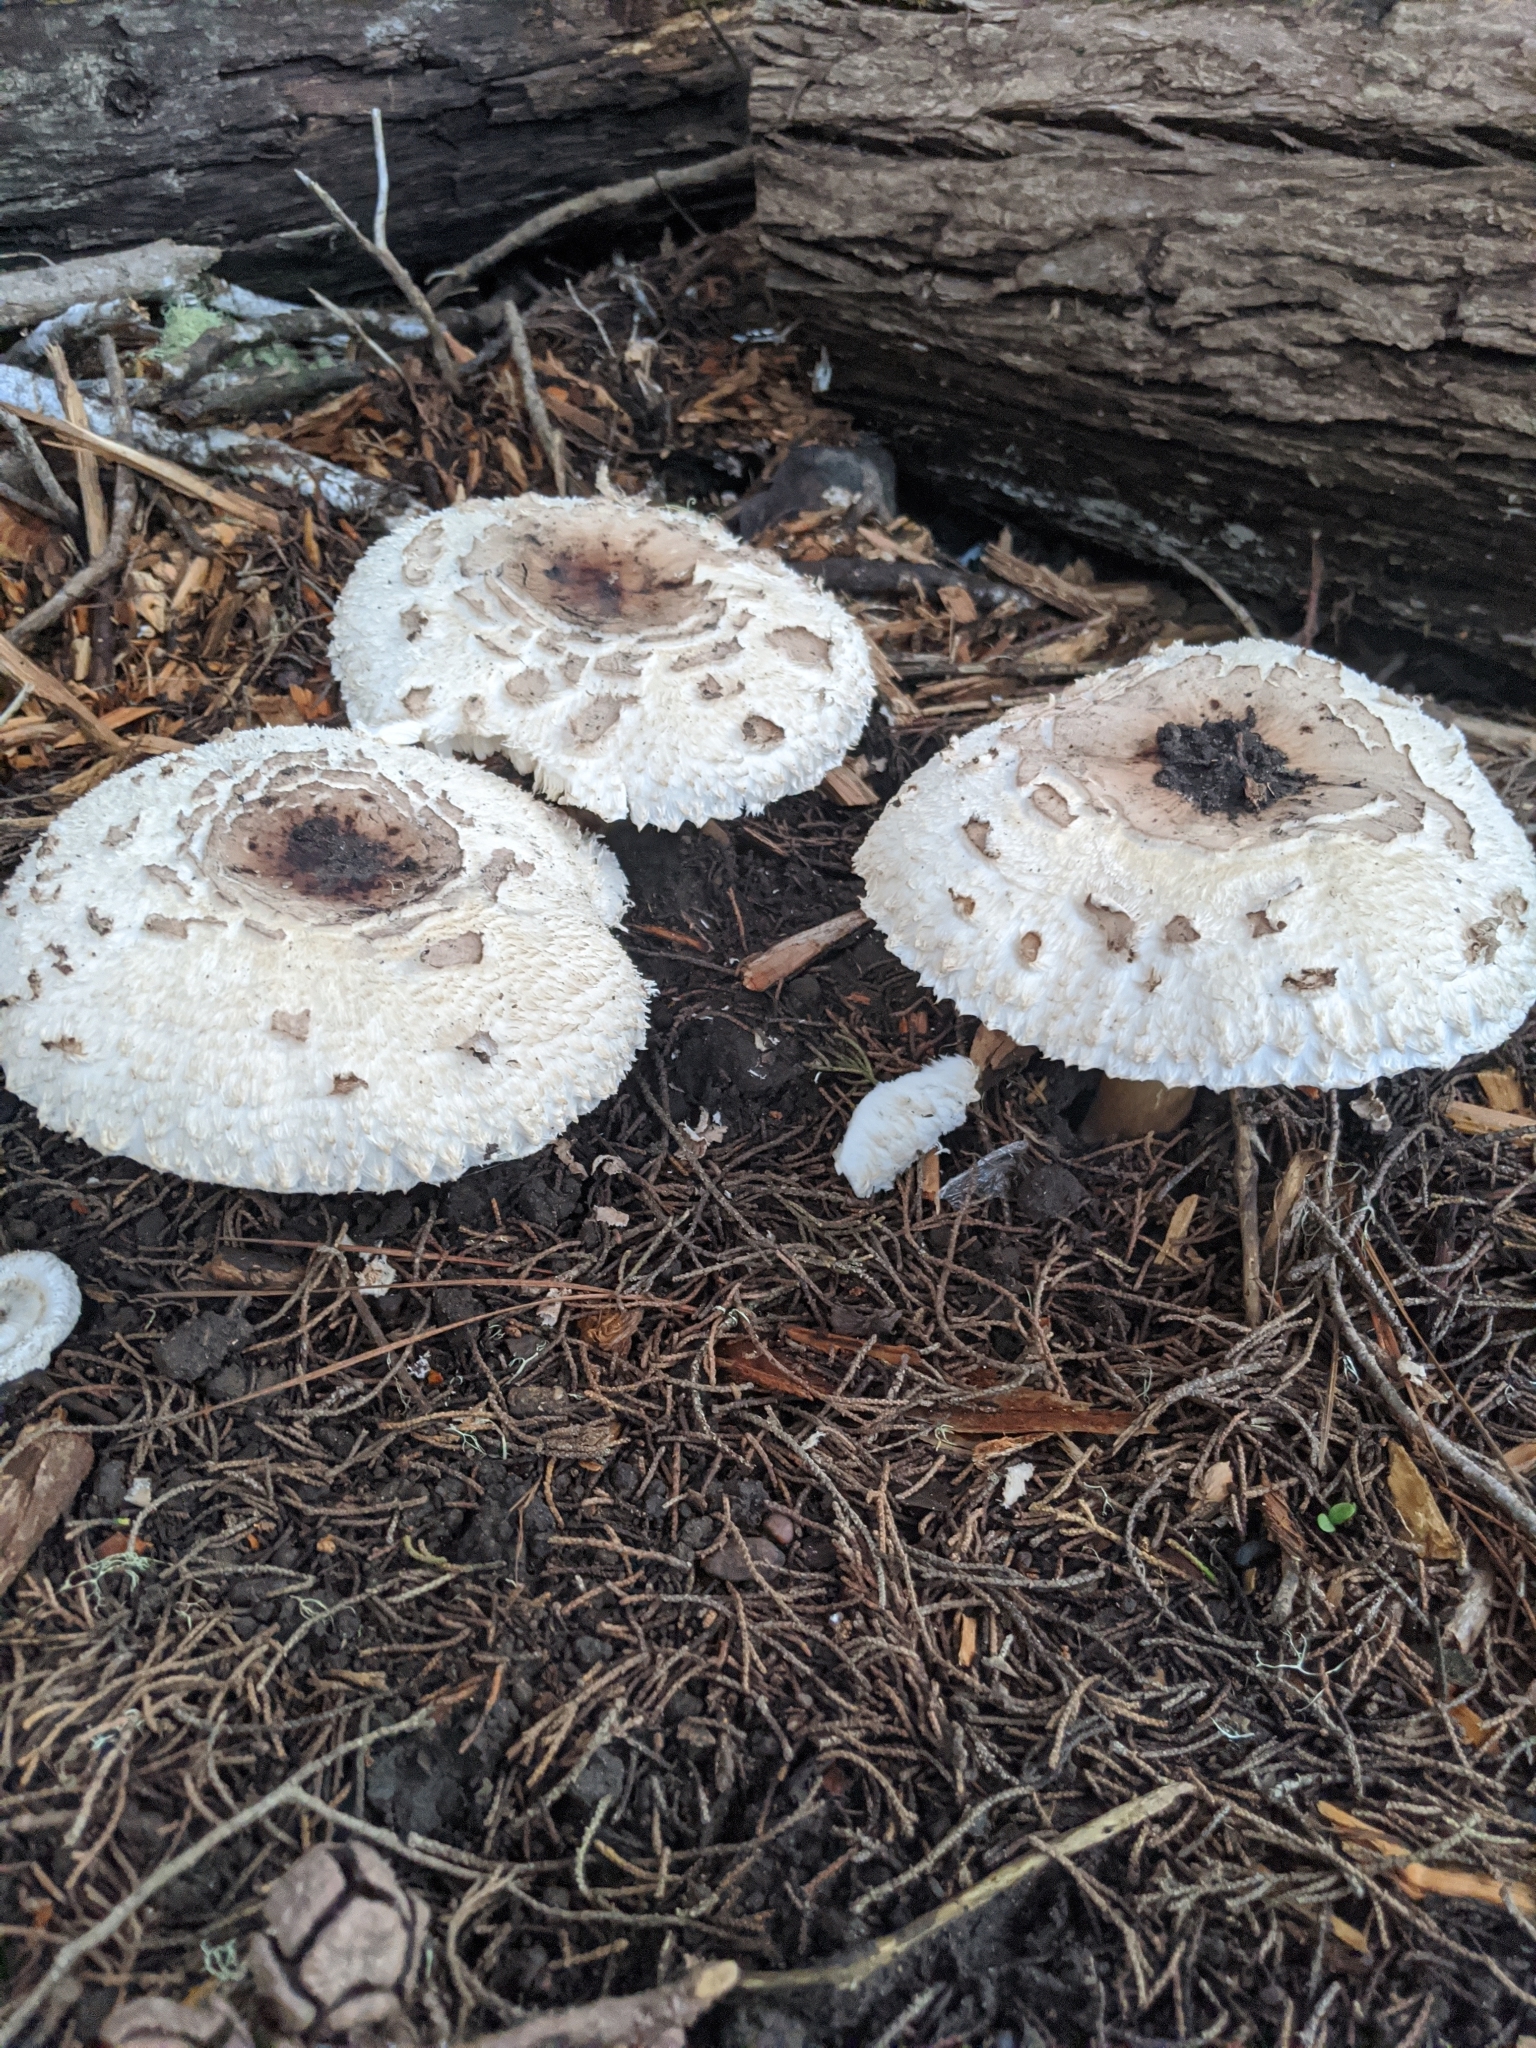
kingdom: Fungi
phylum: Basidiomycota
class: Agaricomycetes
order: Agaricales
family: Agaricaceae
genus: Chlorophyllum
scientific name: Chlorophyllum brunneum
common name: Brown parasol
